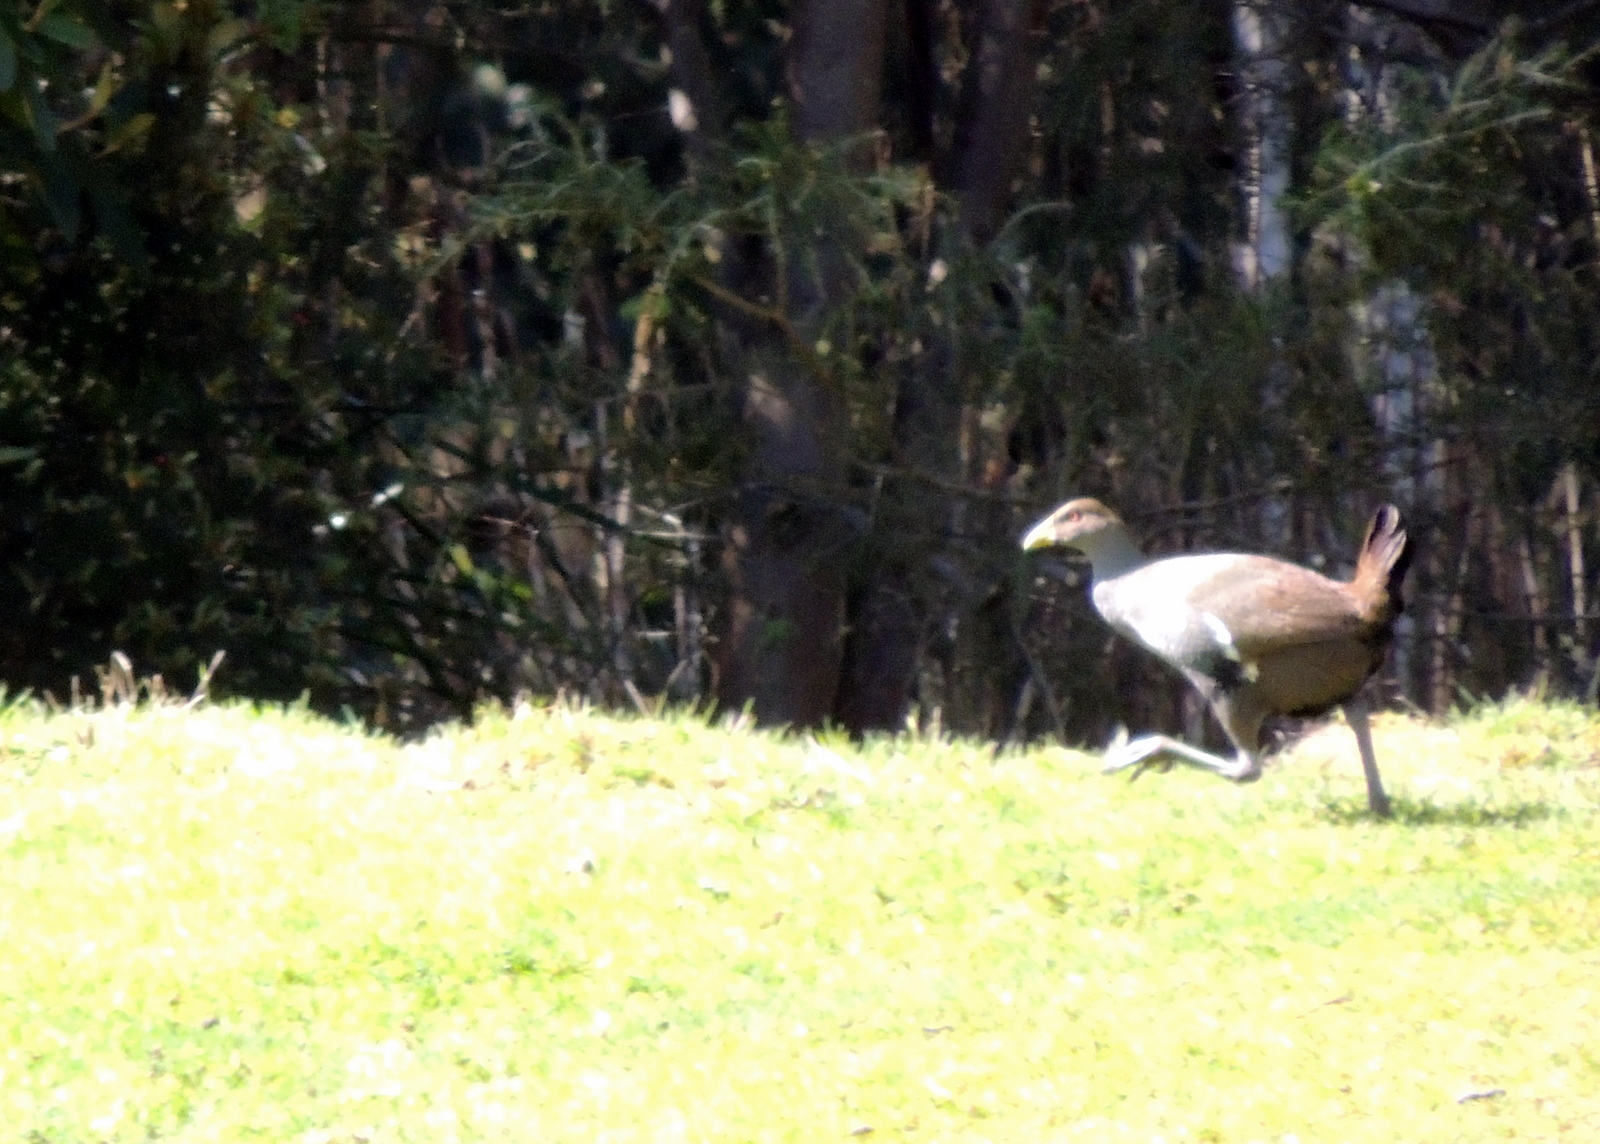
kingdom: Animalia
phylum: Chordata
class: Aves
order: Gruiformes
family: Rallidae
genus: Gallinula
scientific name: Gallinula mortierii
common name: Tasmanian nativehen
